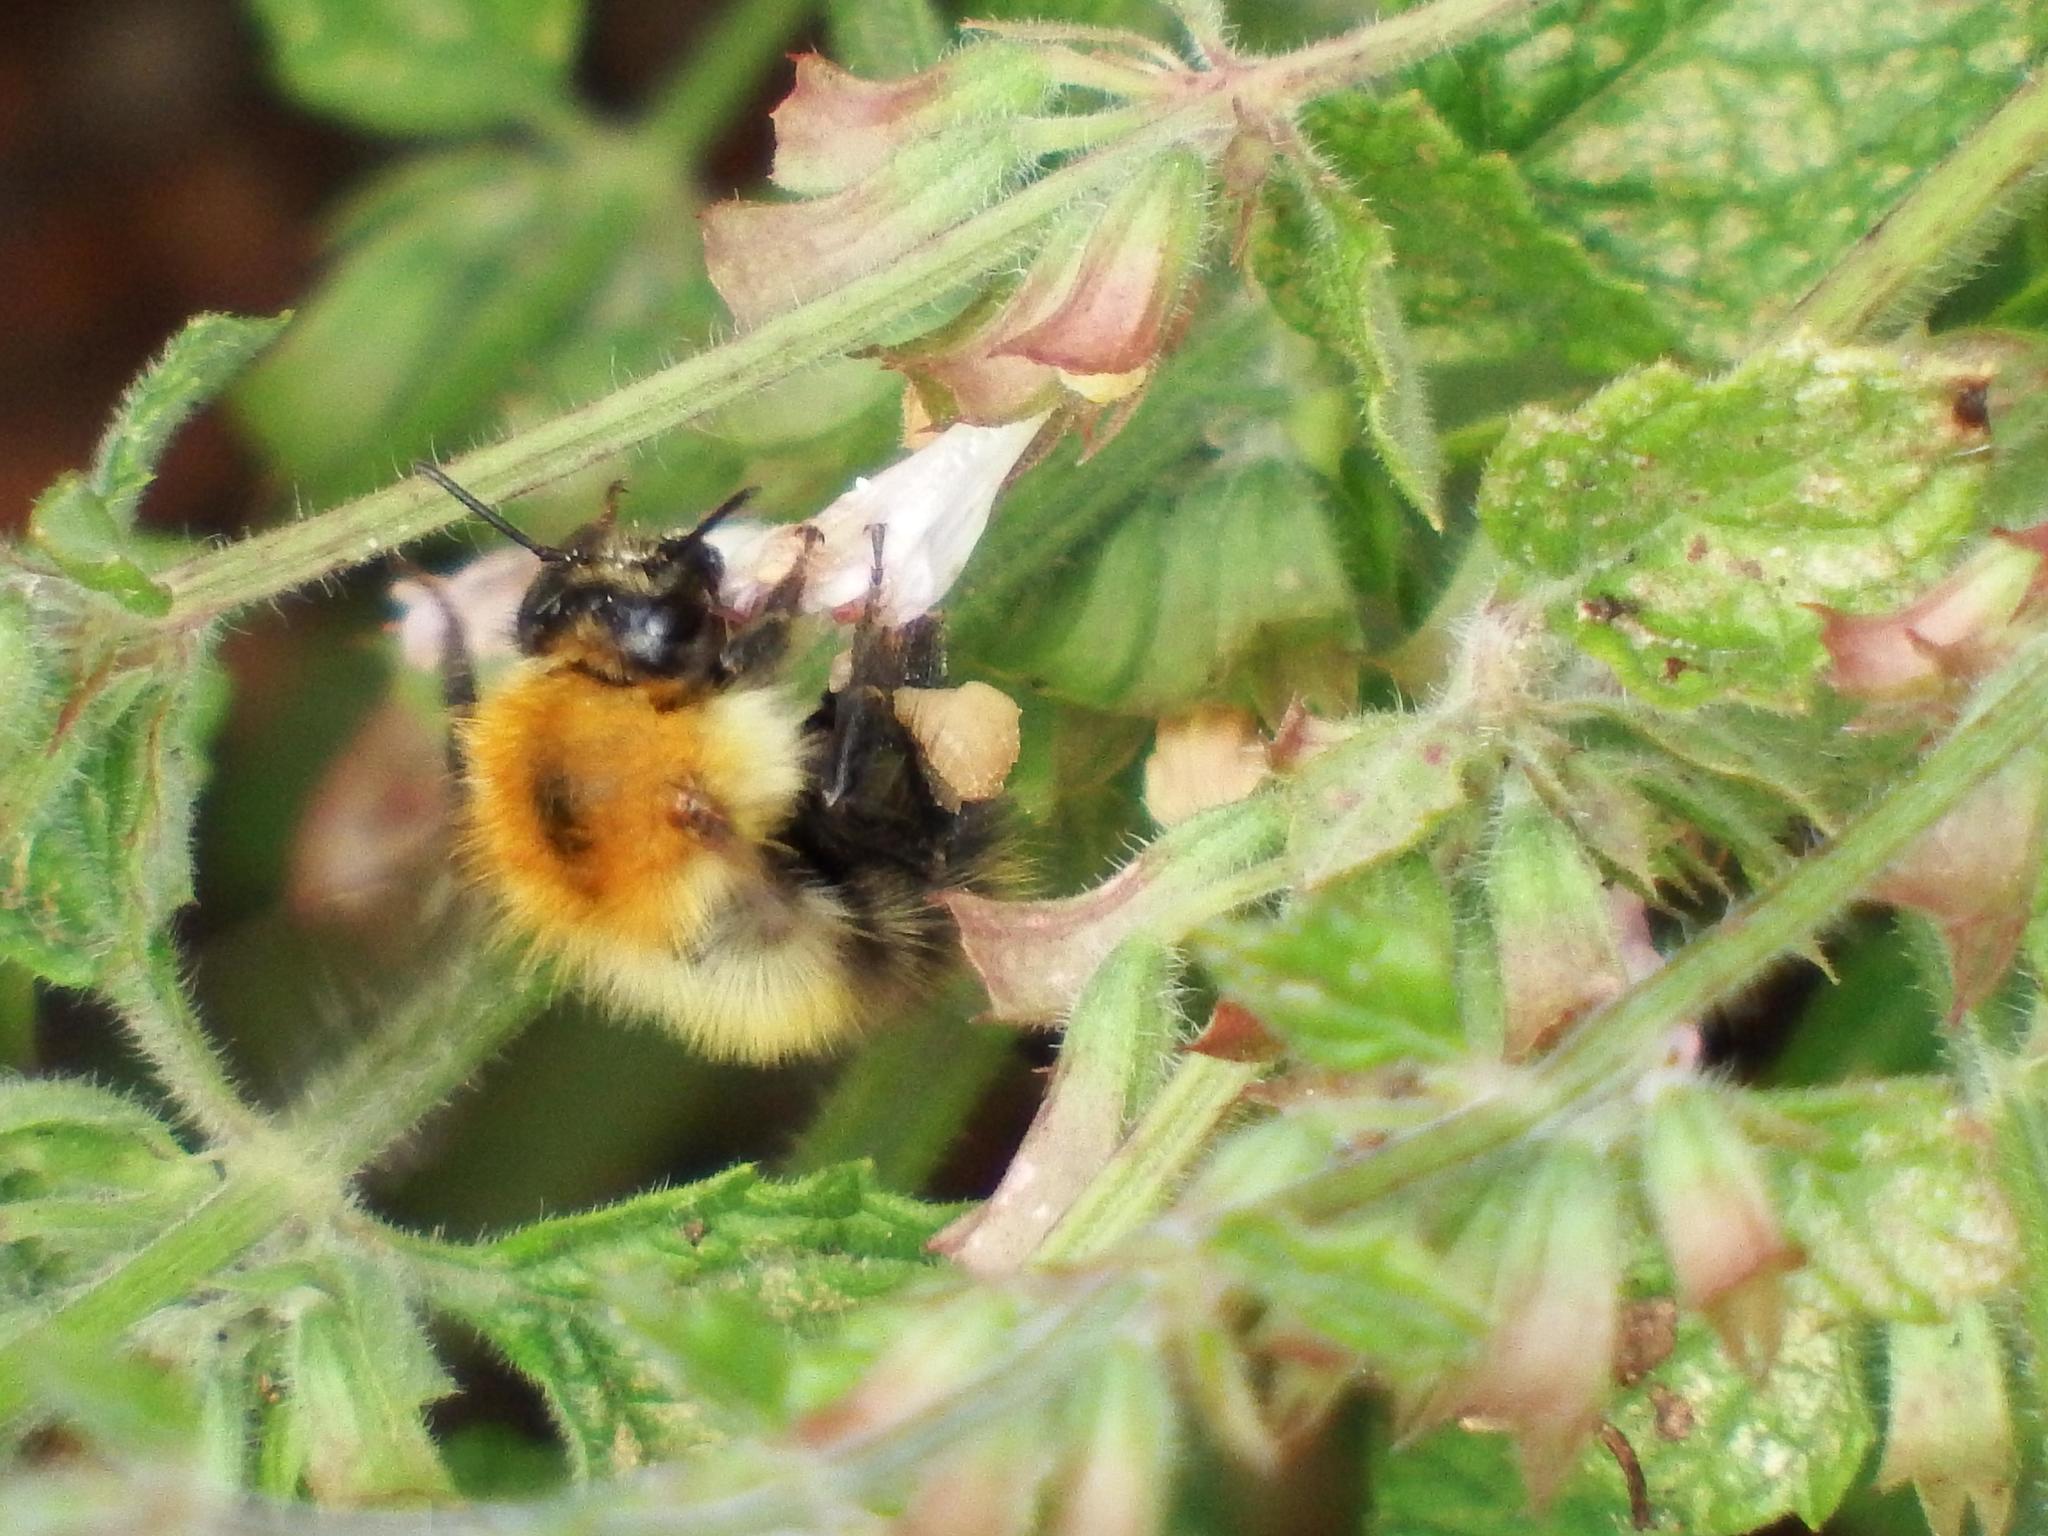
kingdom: Animalia
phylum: Arthropoda
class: Insecta
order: Hymenoptera
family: Apidae
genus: Bombus
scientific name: Bombus pascuorum
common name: Common carder bee
